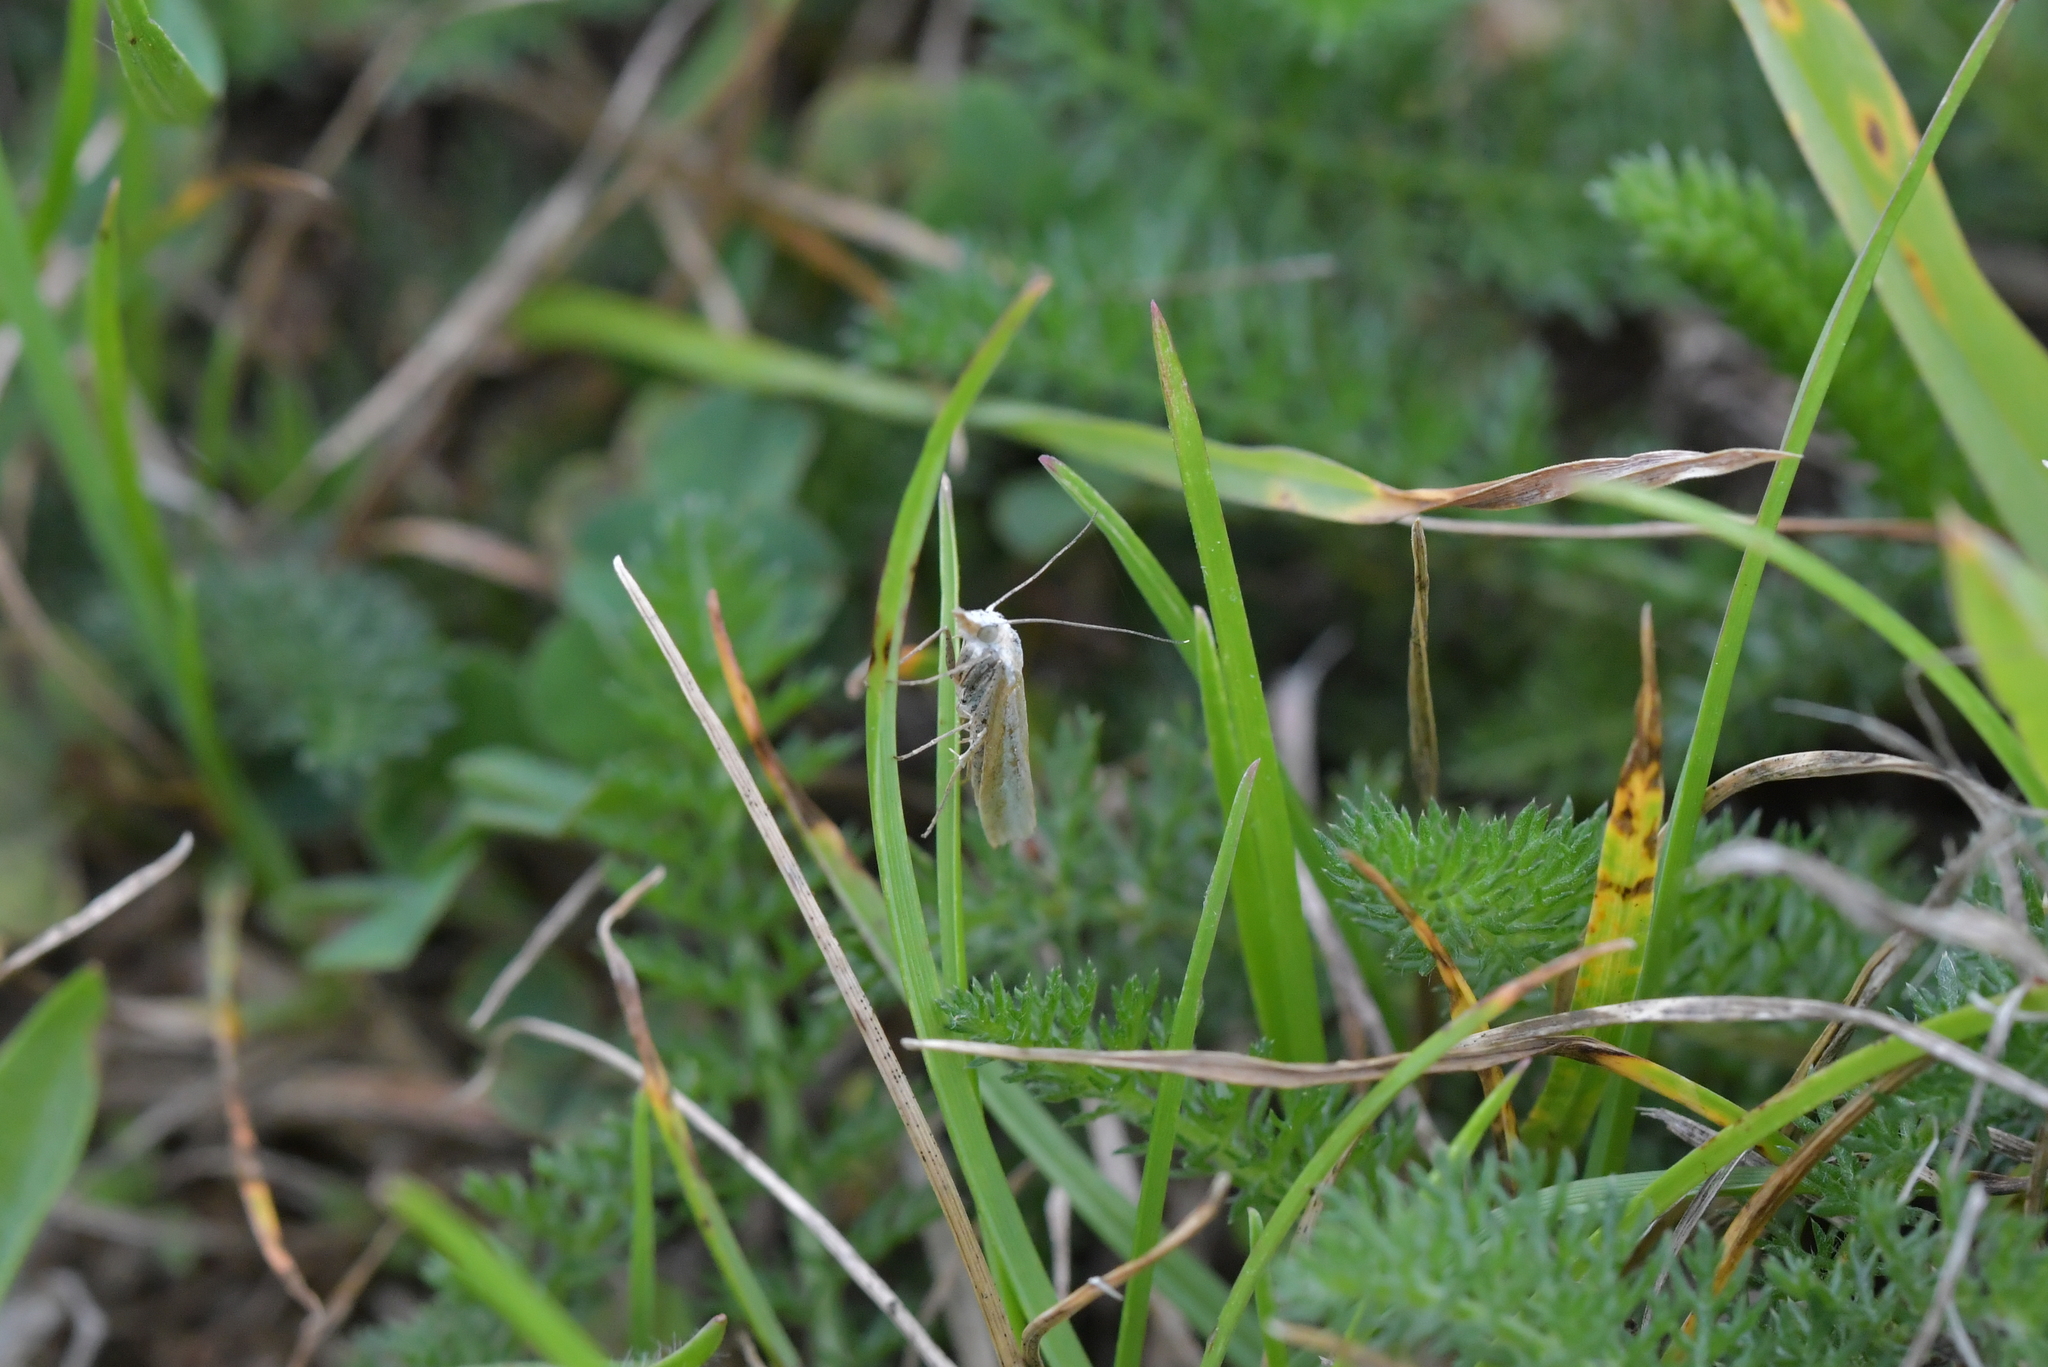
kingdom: Plantae
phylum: Tracheophyta
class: Magnoliopsida
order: Asterales
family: Campanulaceae
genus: Lobelia
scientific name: Lobelia arenaria
